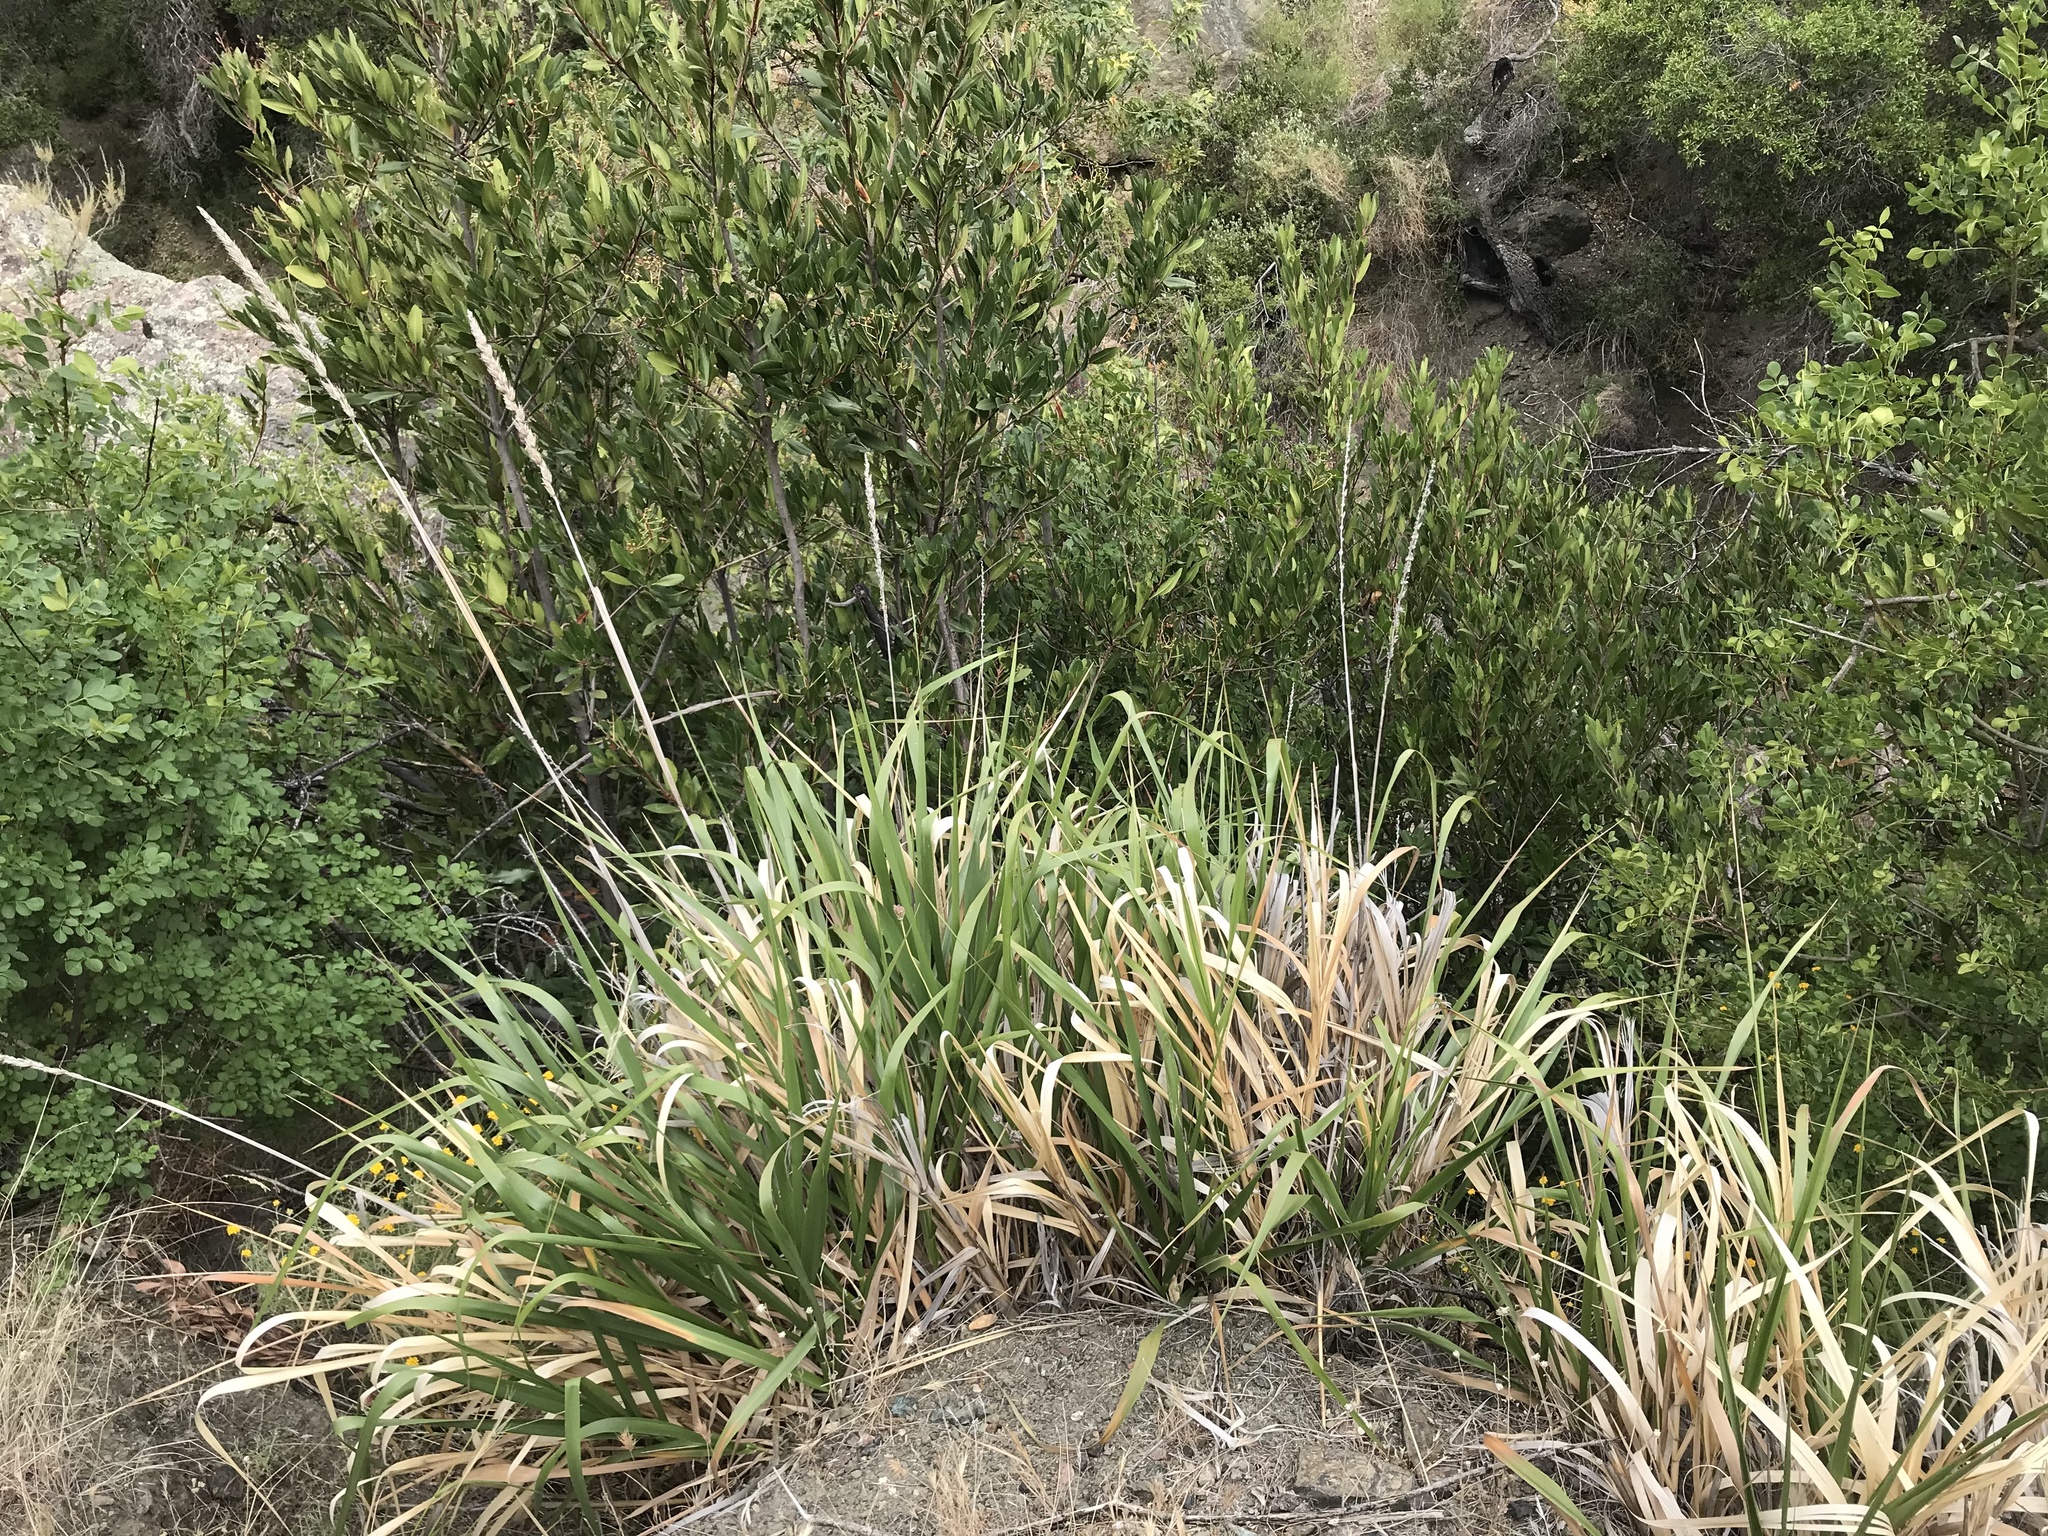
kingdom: Plantae
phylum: Tracheophyta
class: Liliopsida
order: Poales
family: Poaceae
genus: Leymus
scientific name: Leymus condensatus
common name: Giant wild rye
